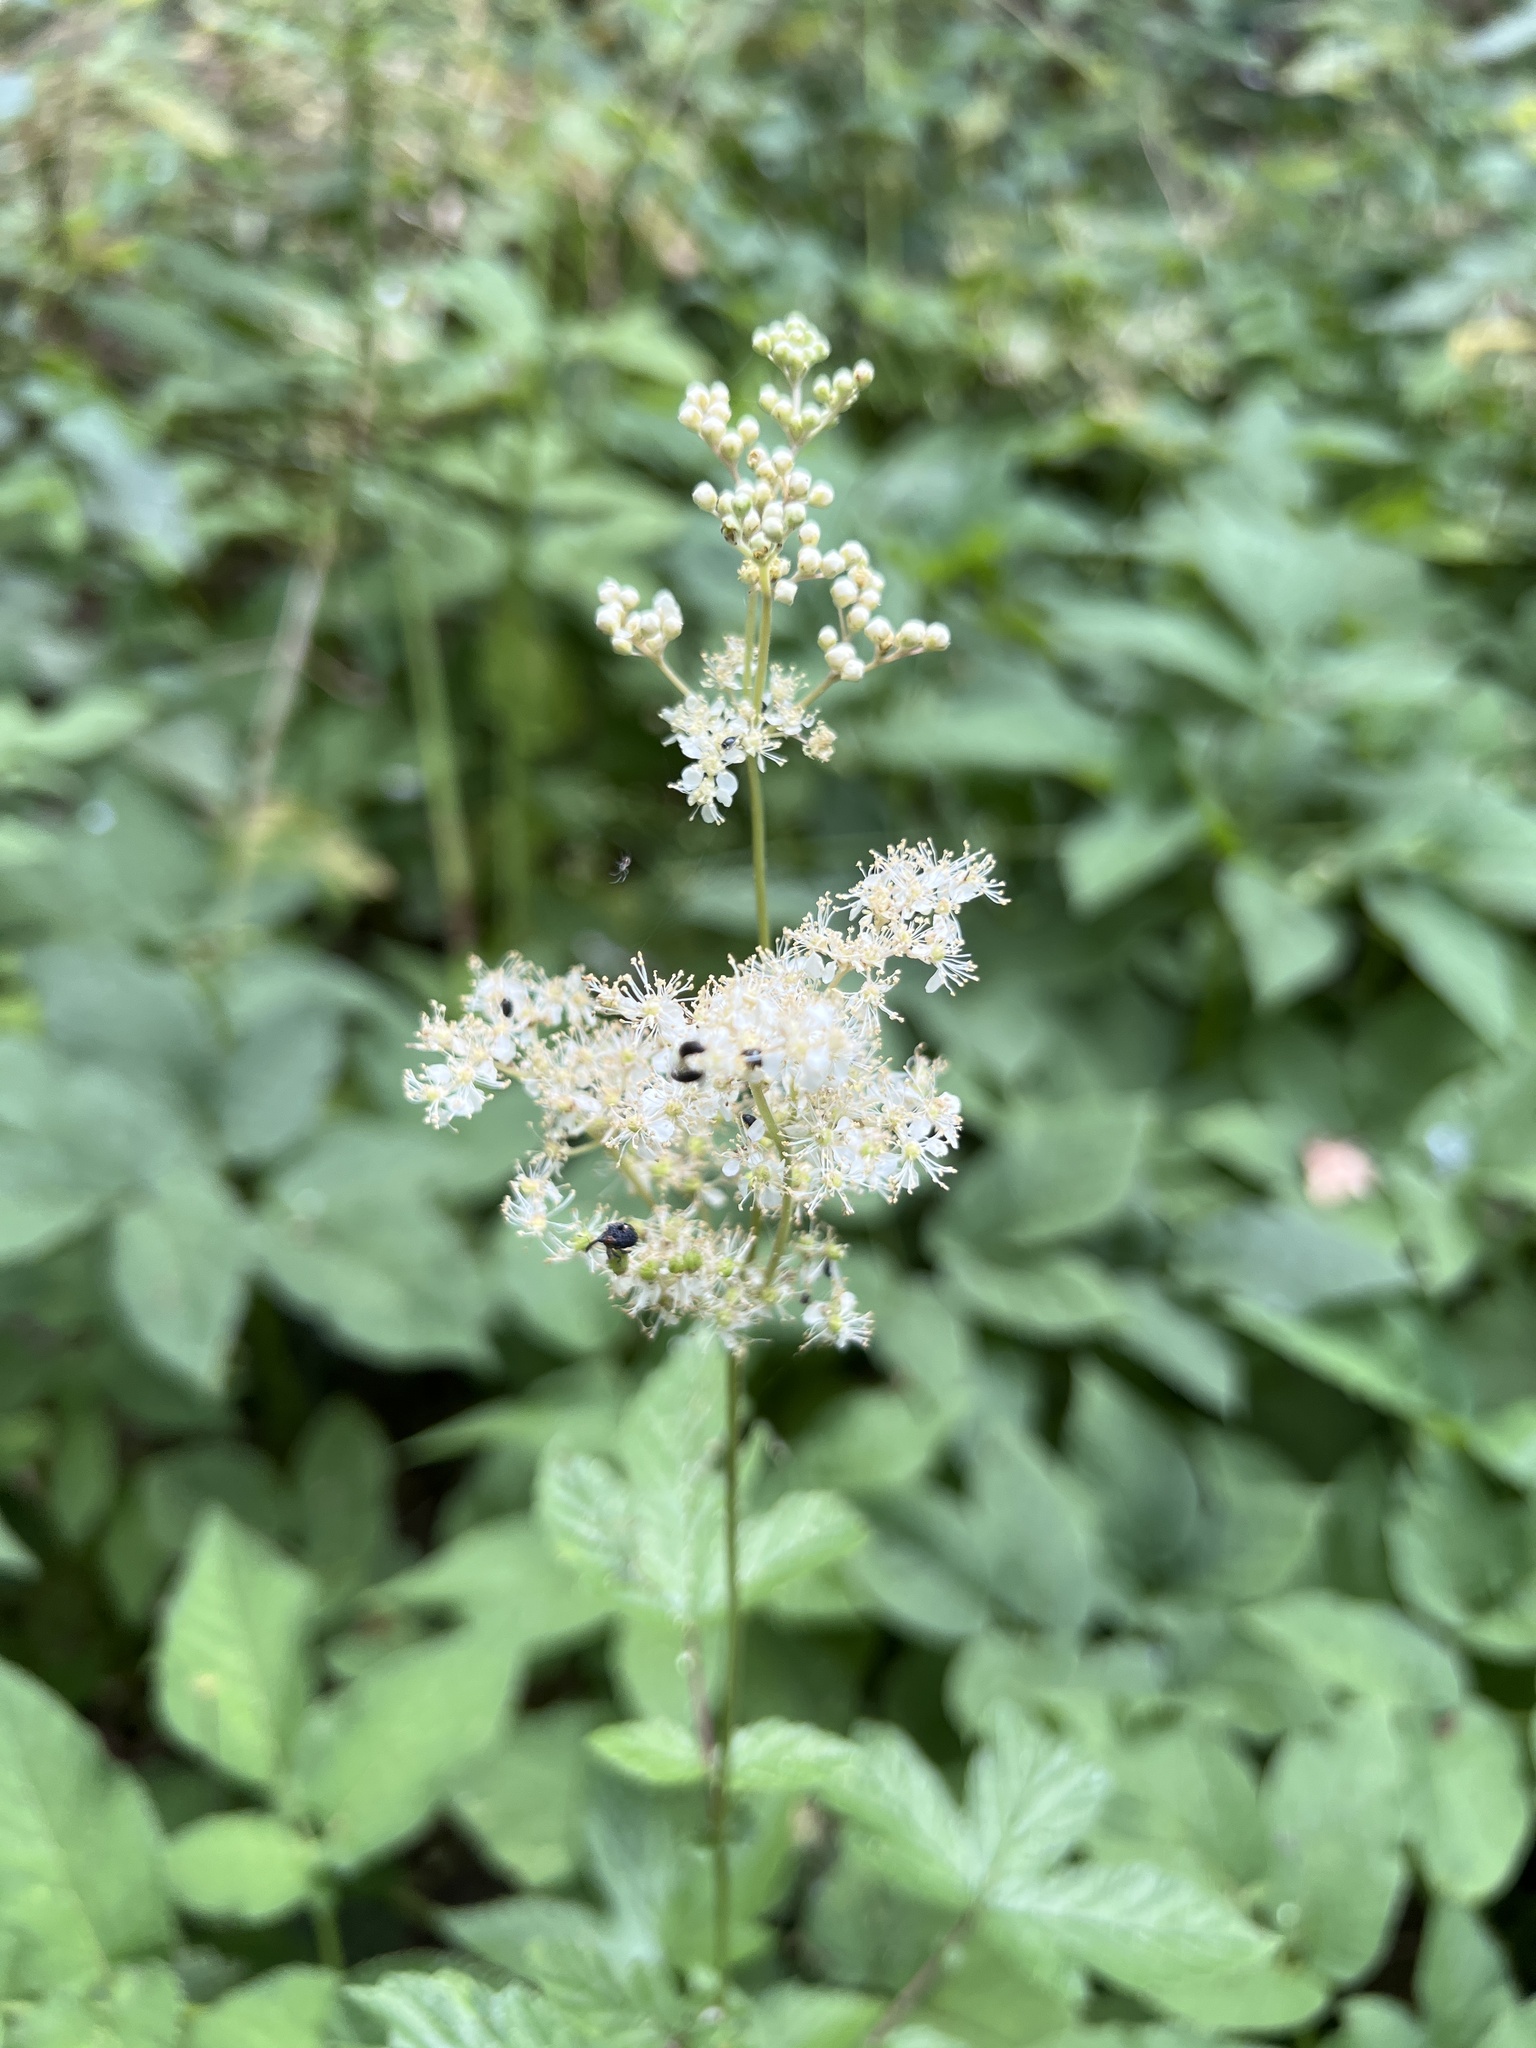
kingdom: Plantae
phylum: Tracheophyta
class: Magnoliopsida
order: Rosales
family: Rosaceae
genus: Filipendula
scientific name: Filipendula ulmaria
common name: Meadowsweet
